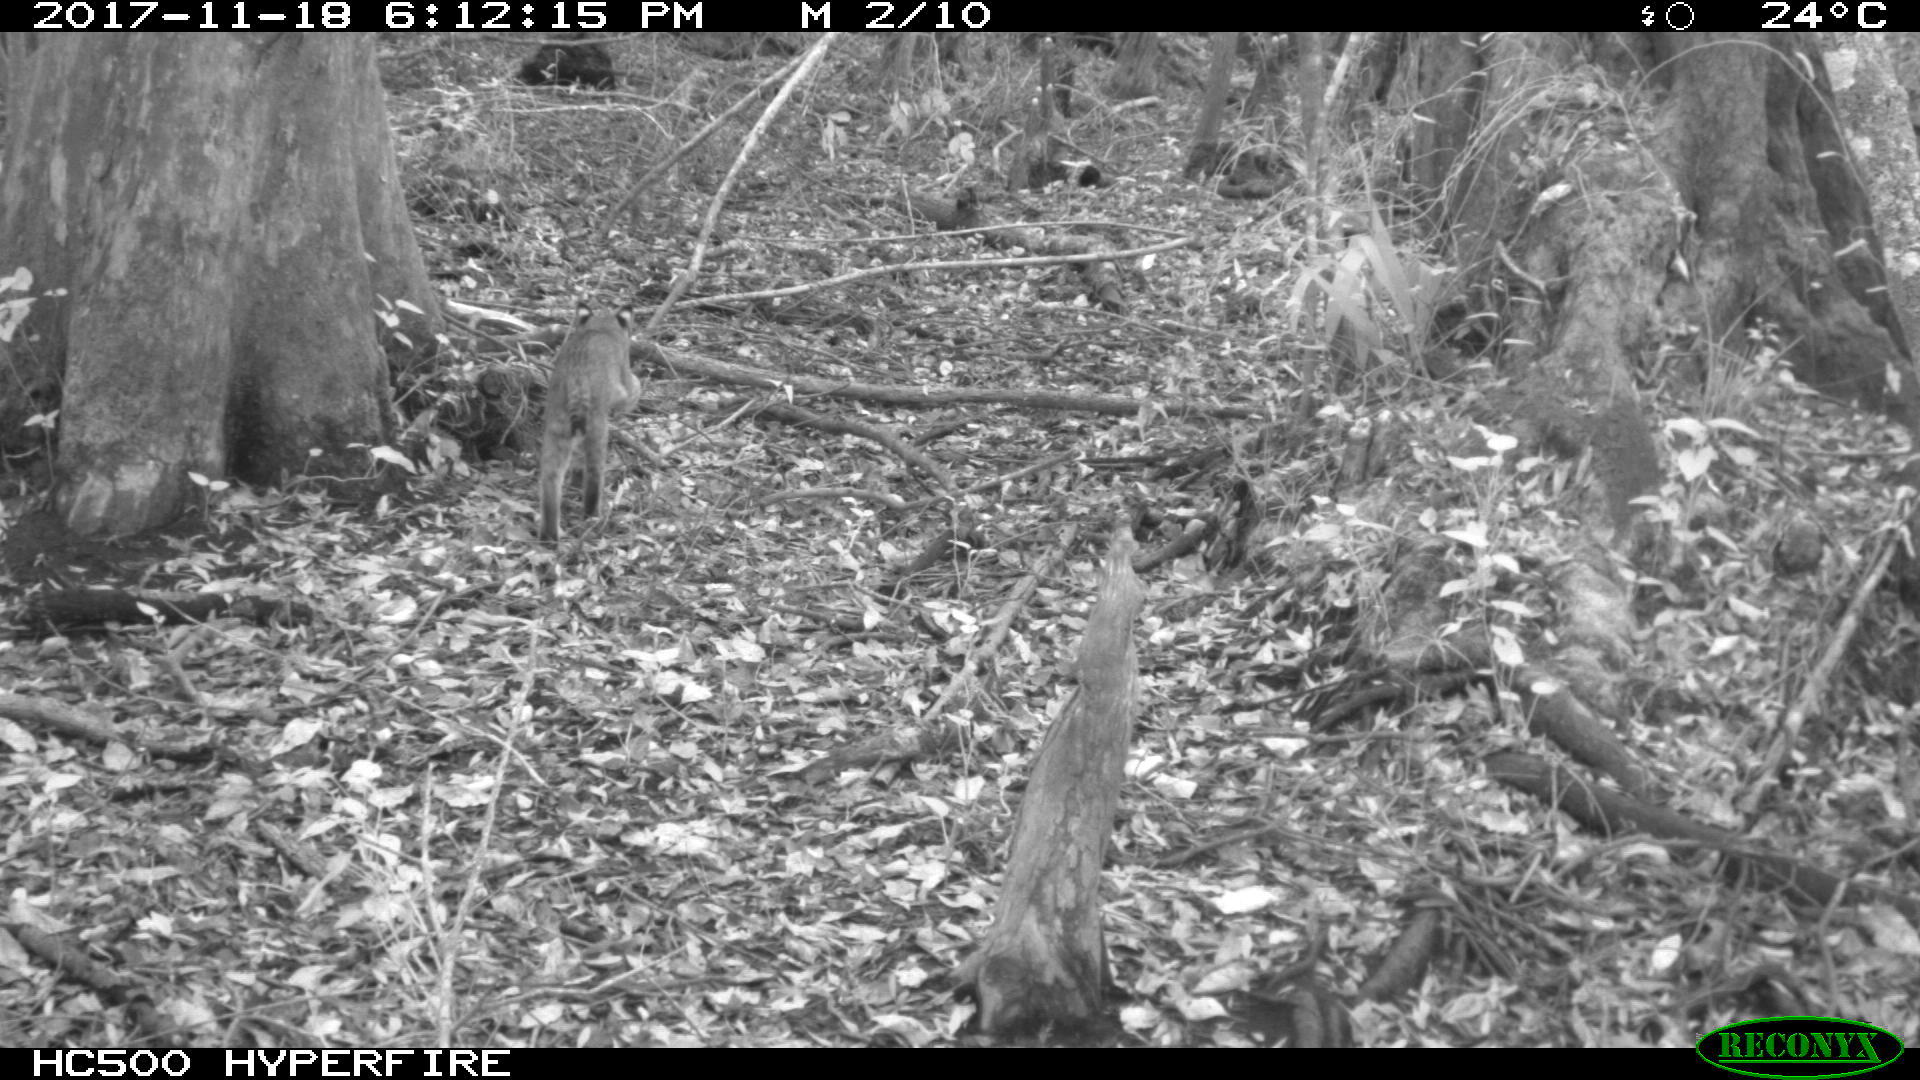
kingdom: Animalia
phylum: Chordata
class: Mammalia
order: Carnivora
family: Felidae
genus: Lynx
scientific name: Lynx rufus
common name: Bobcat
